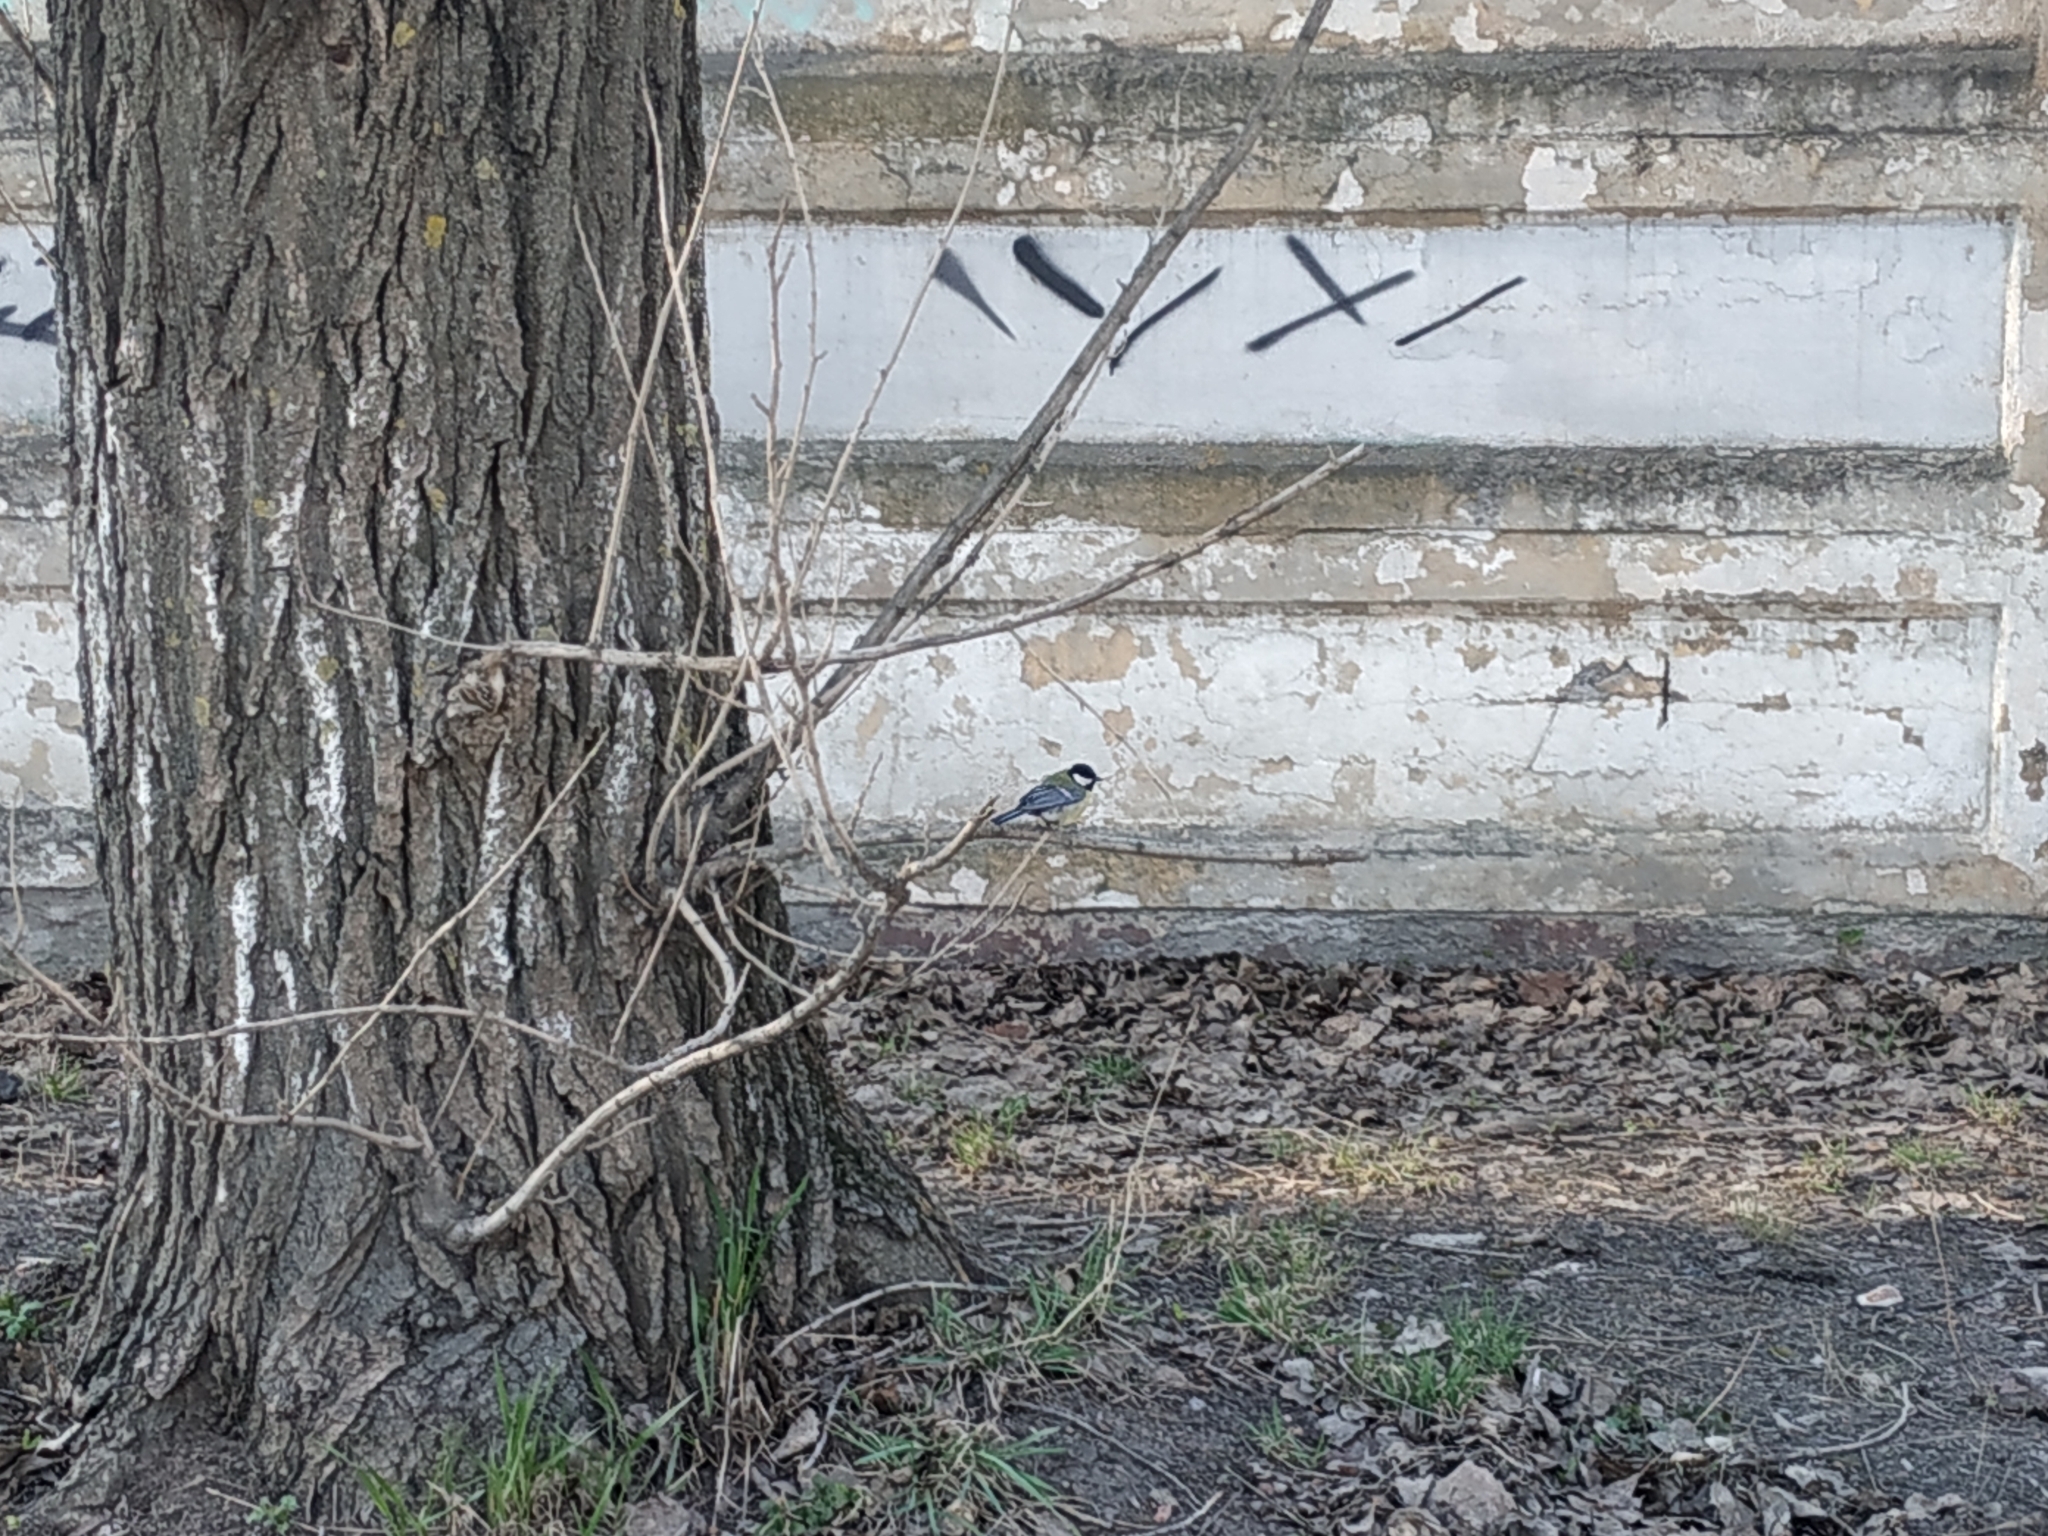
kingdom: Animalia
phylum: Chordata
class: Aves
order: Passeriformes
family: Paridae
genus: Parus
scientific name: Parus major
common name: Great tit
